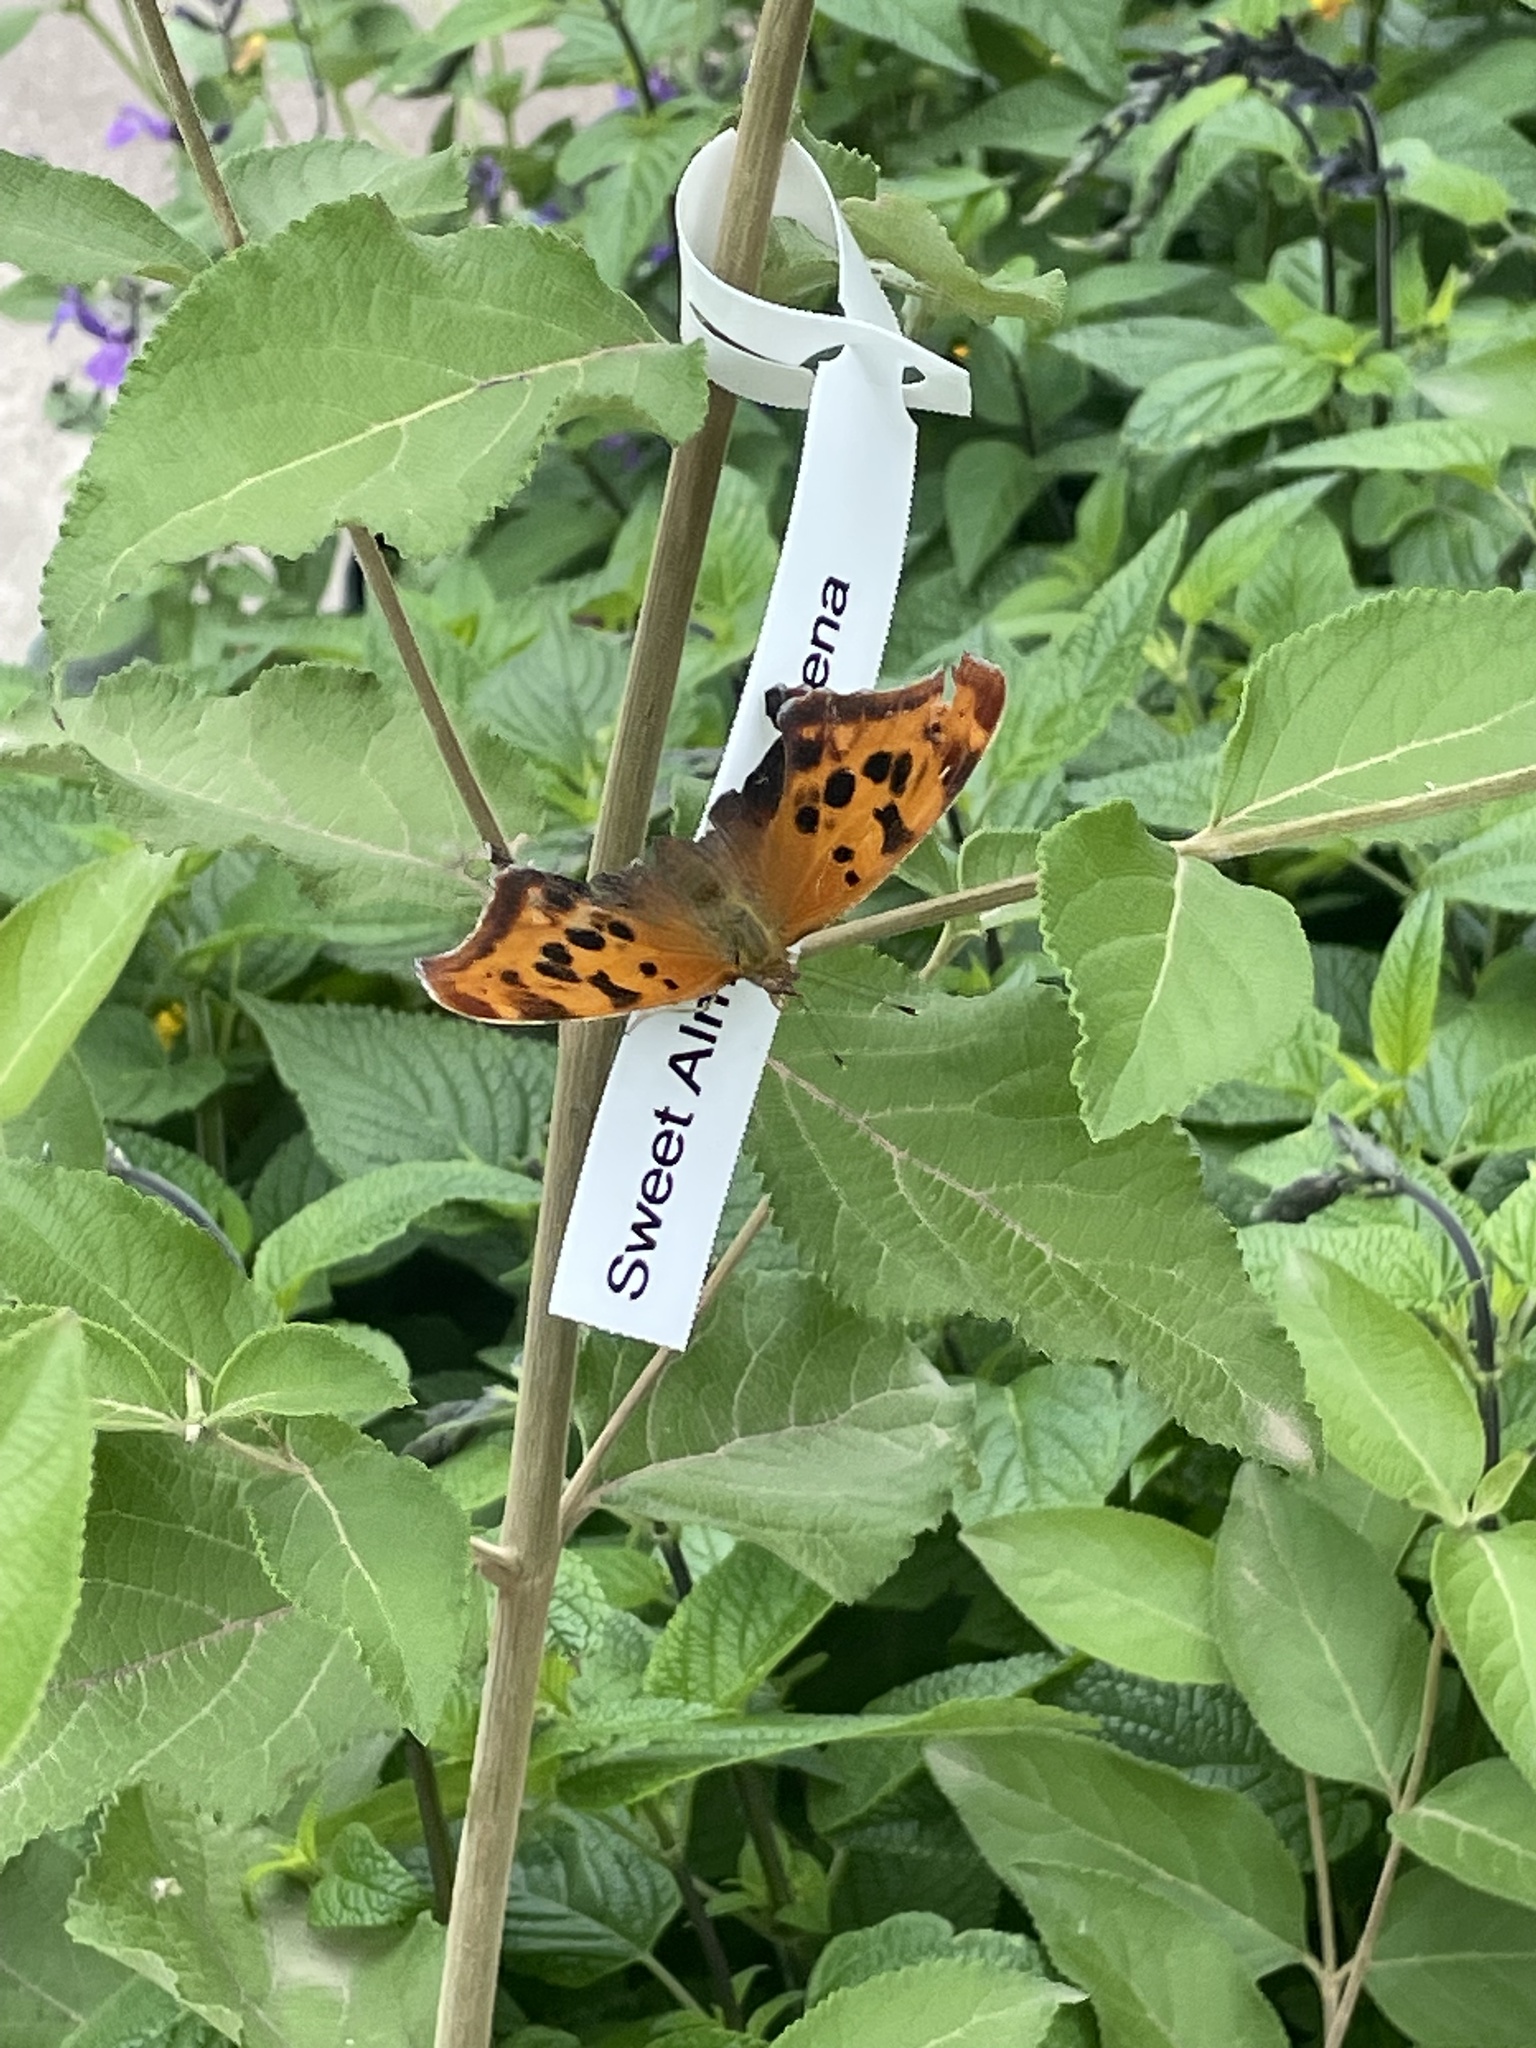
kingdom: Animalia
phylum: Arthropoda
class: Insecta
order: Lepidoptera
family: Nymphalidae
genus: Polygonia
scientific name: Polygonia interrogationis
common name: Question mark
